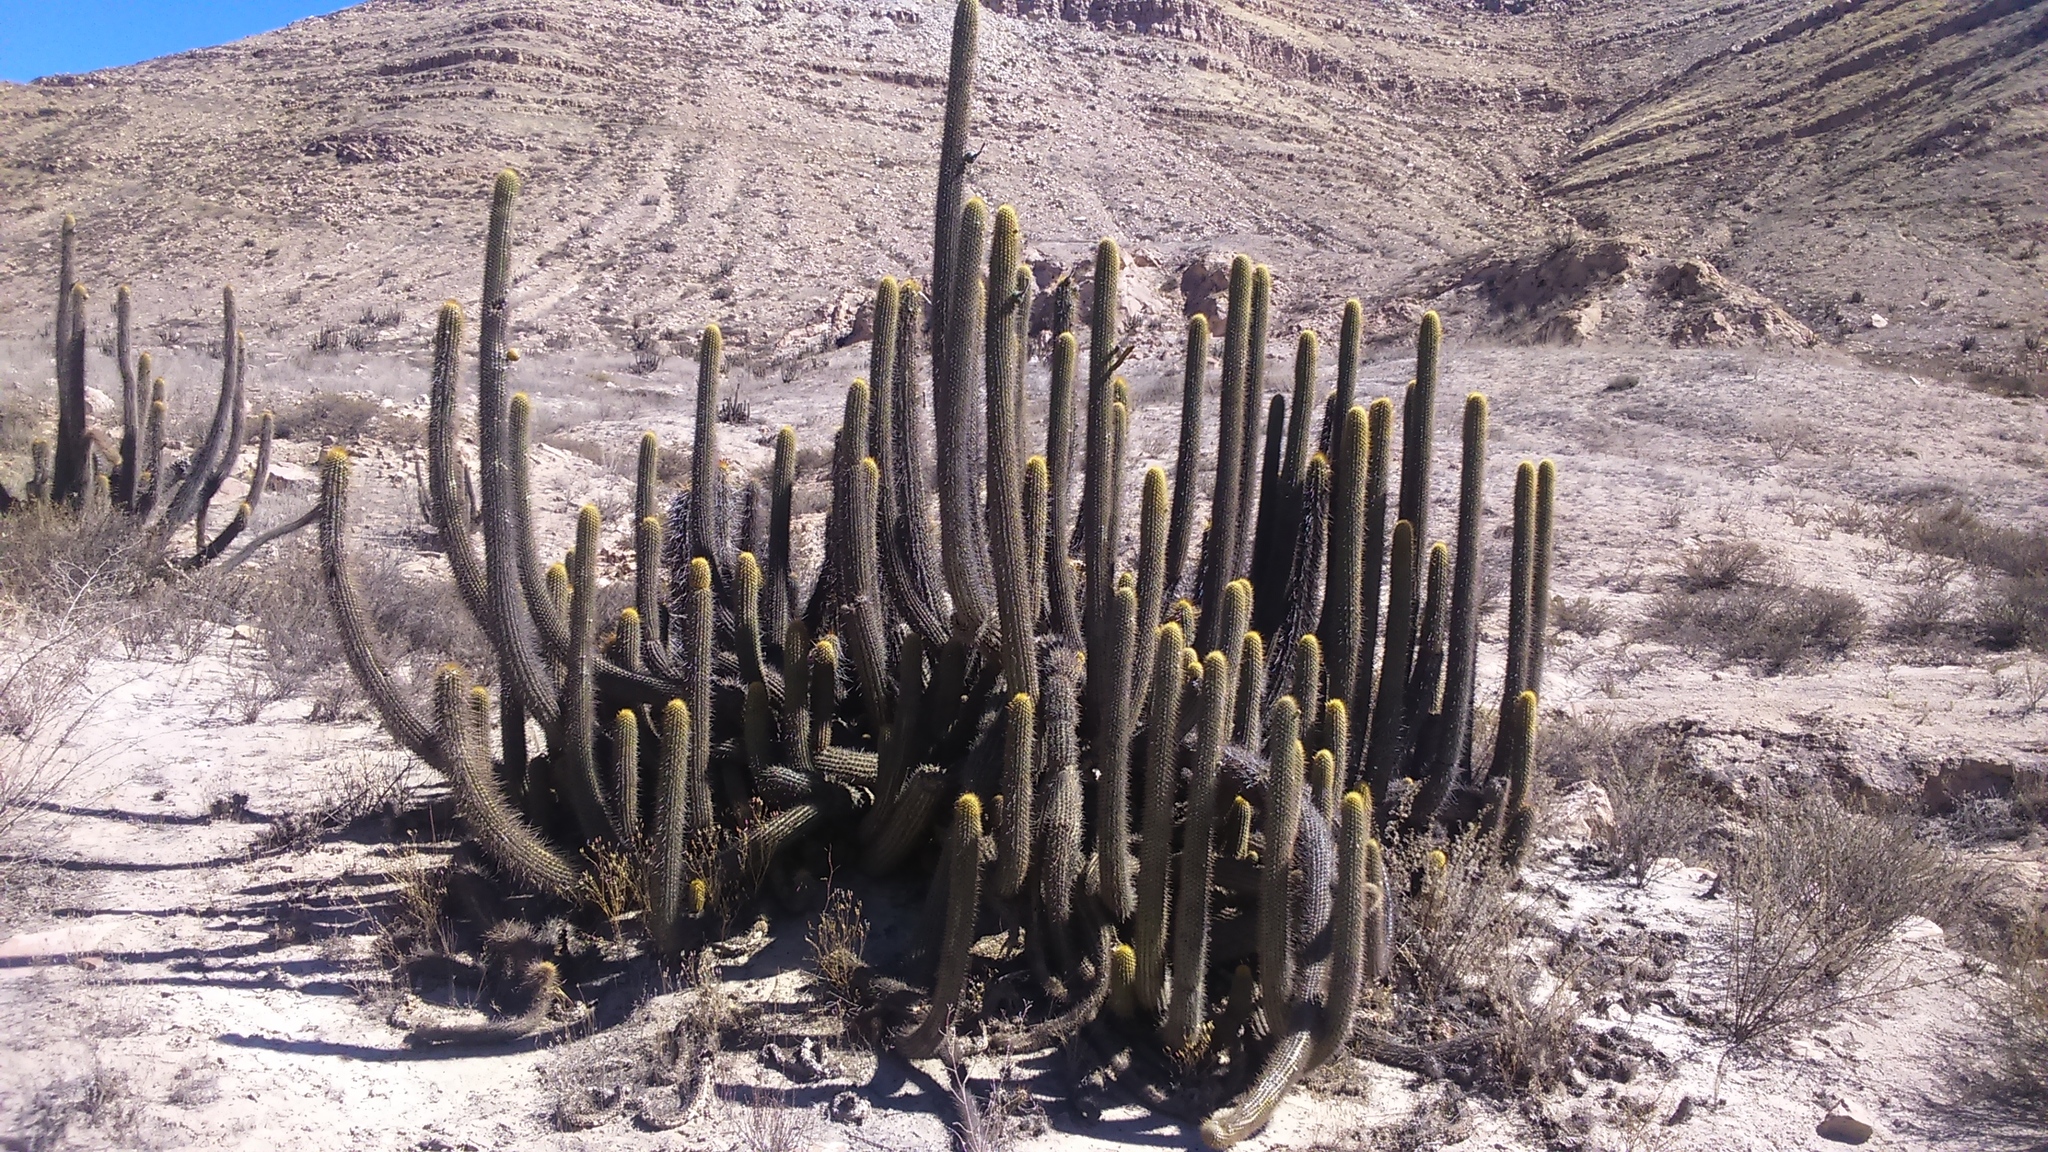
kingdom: Plantae
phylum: Tracheophyta
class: Magnoliopsida
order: Caryophyllales
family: Cactaceae
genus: Weberbauerocereus
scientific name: Weberbauerocereus weberbaueri
